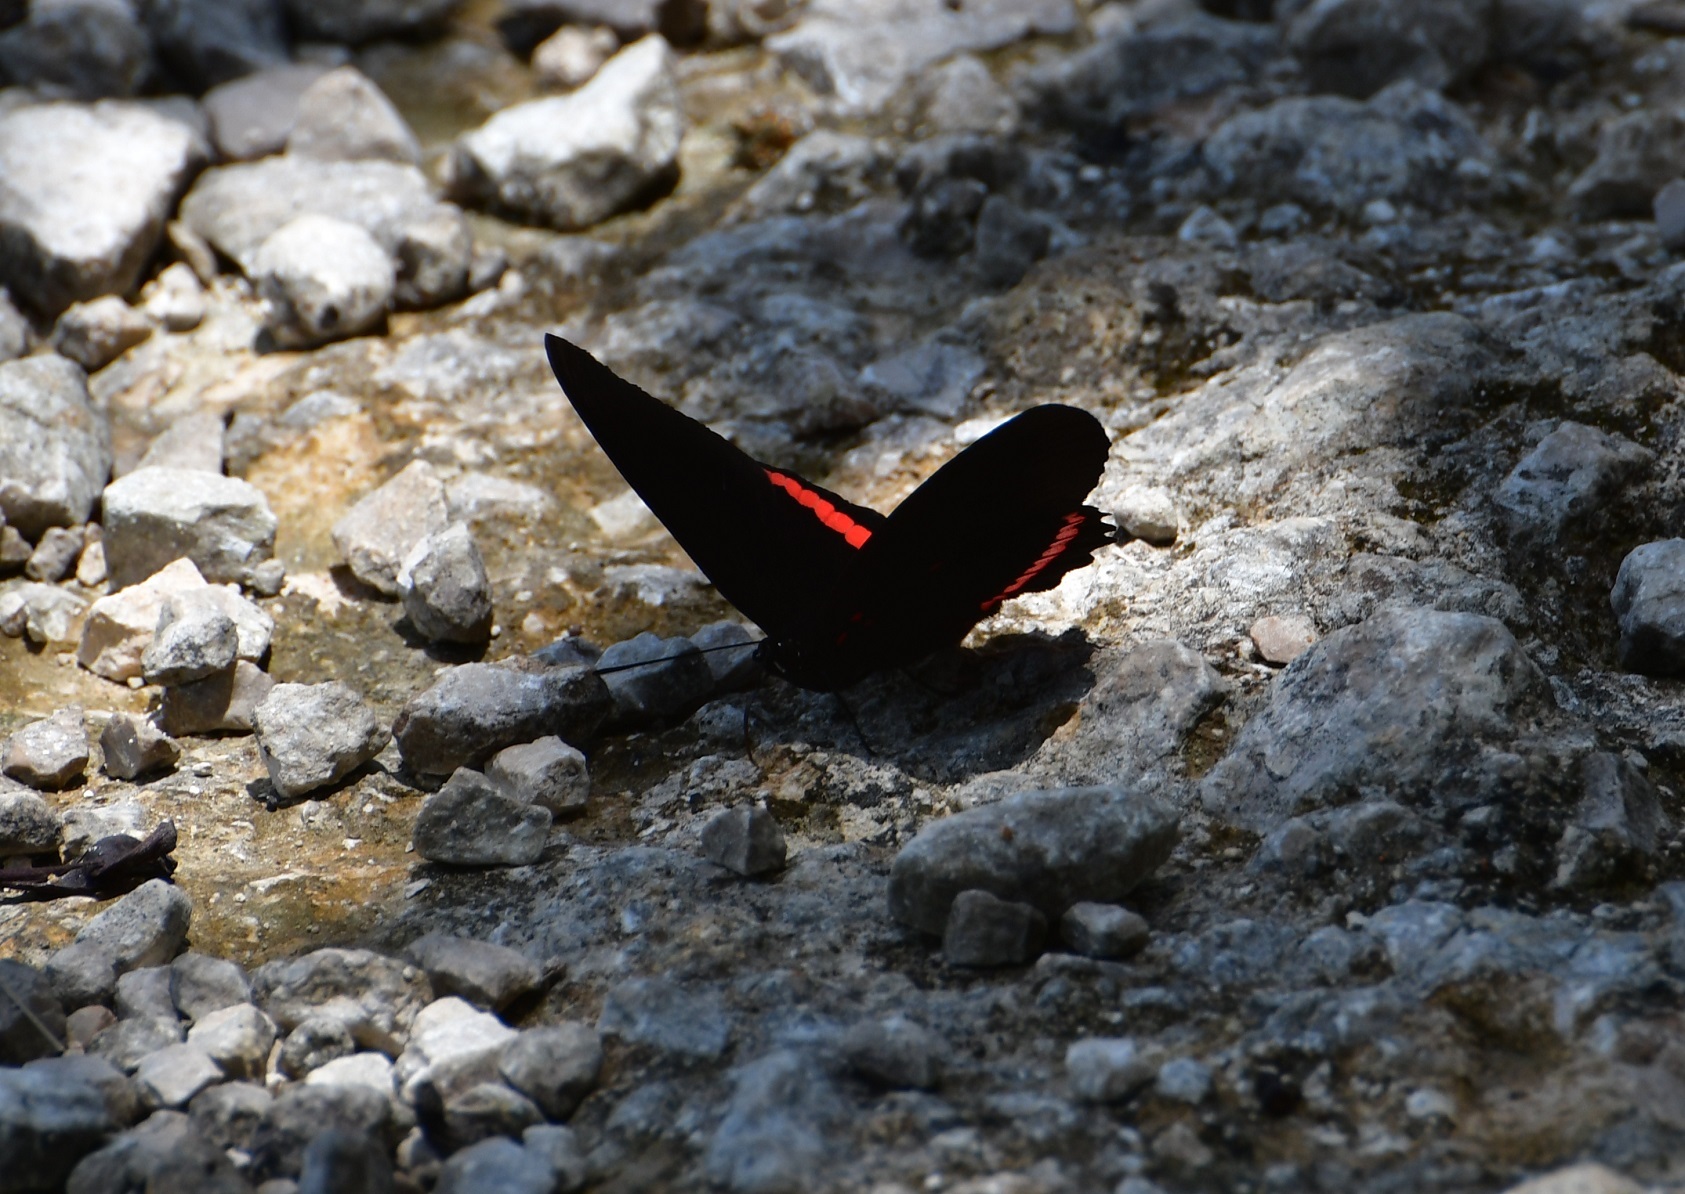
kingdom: Animalia
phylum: Arthropoda
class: Insecta
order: Lepidoptera
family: Nymphalidae
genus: Biblis
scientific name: Biblis aganisa
